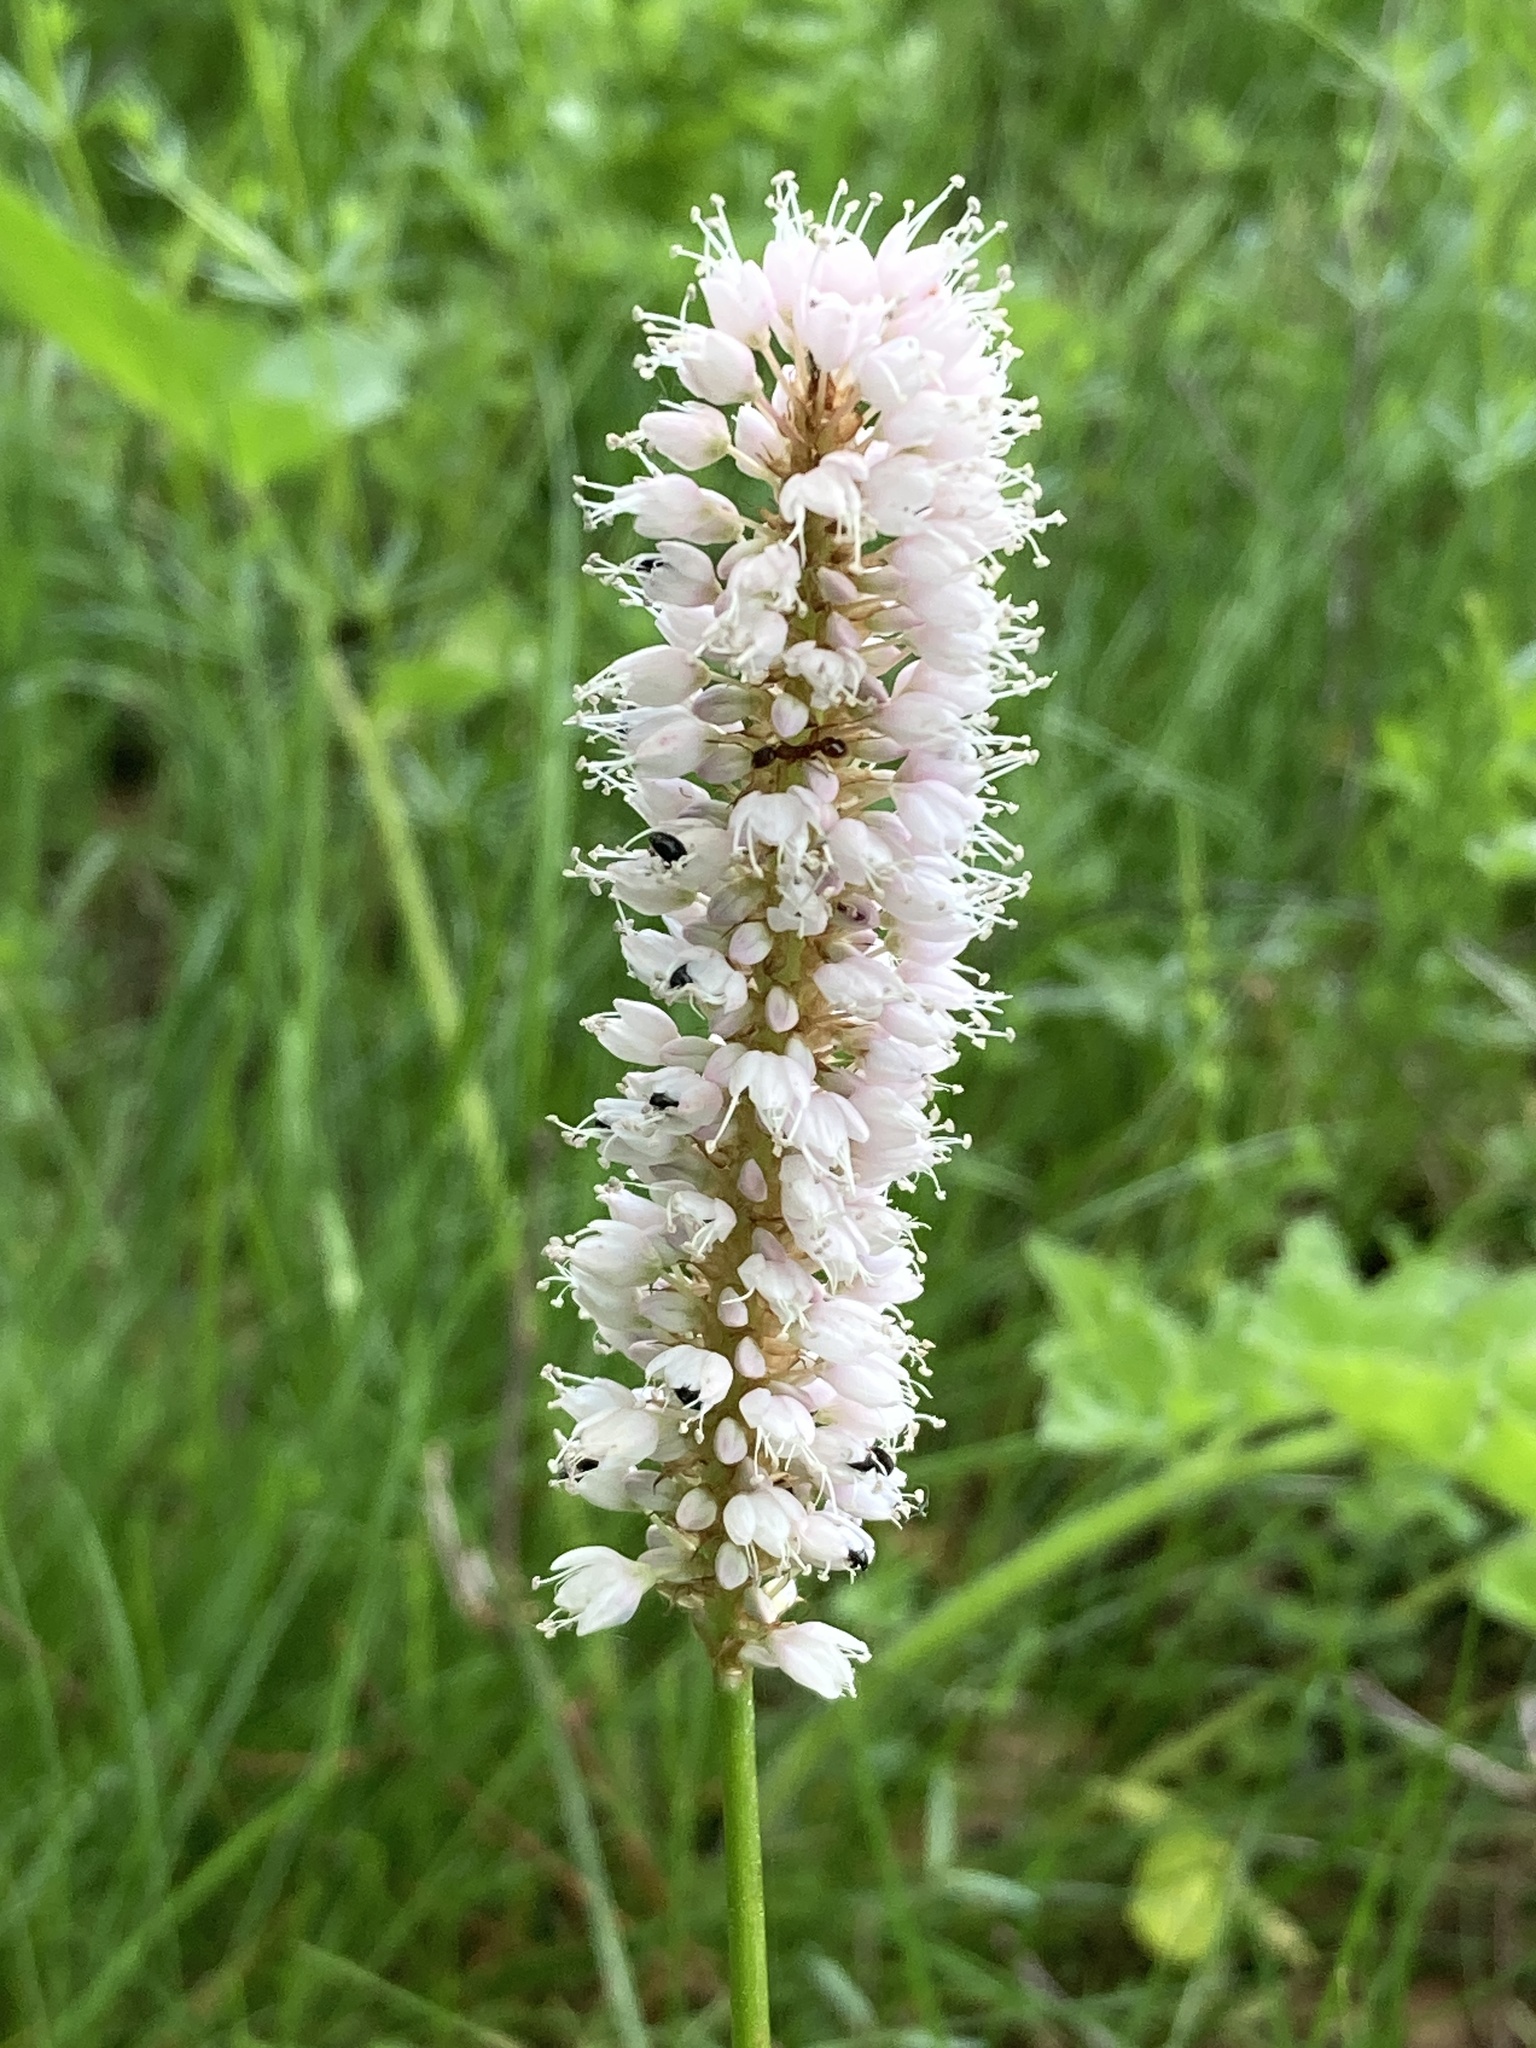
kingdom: Plantae
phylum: Tracheophyta
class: Magnoliopsida
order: Caryophyllales
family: Polygonaceae
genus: Bistorta
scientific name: Bistorta officinalis
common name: Common bistort
